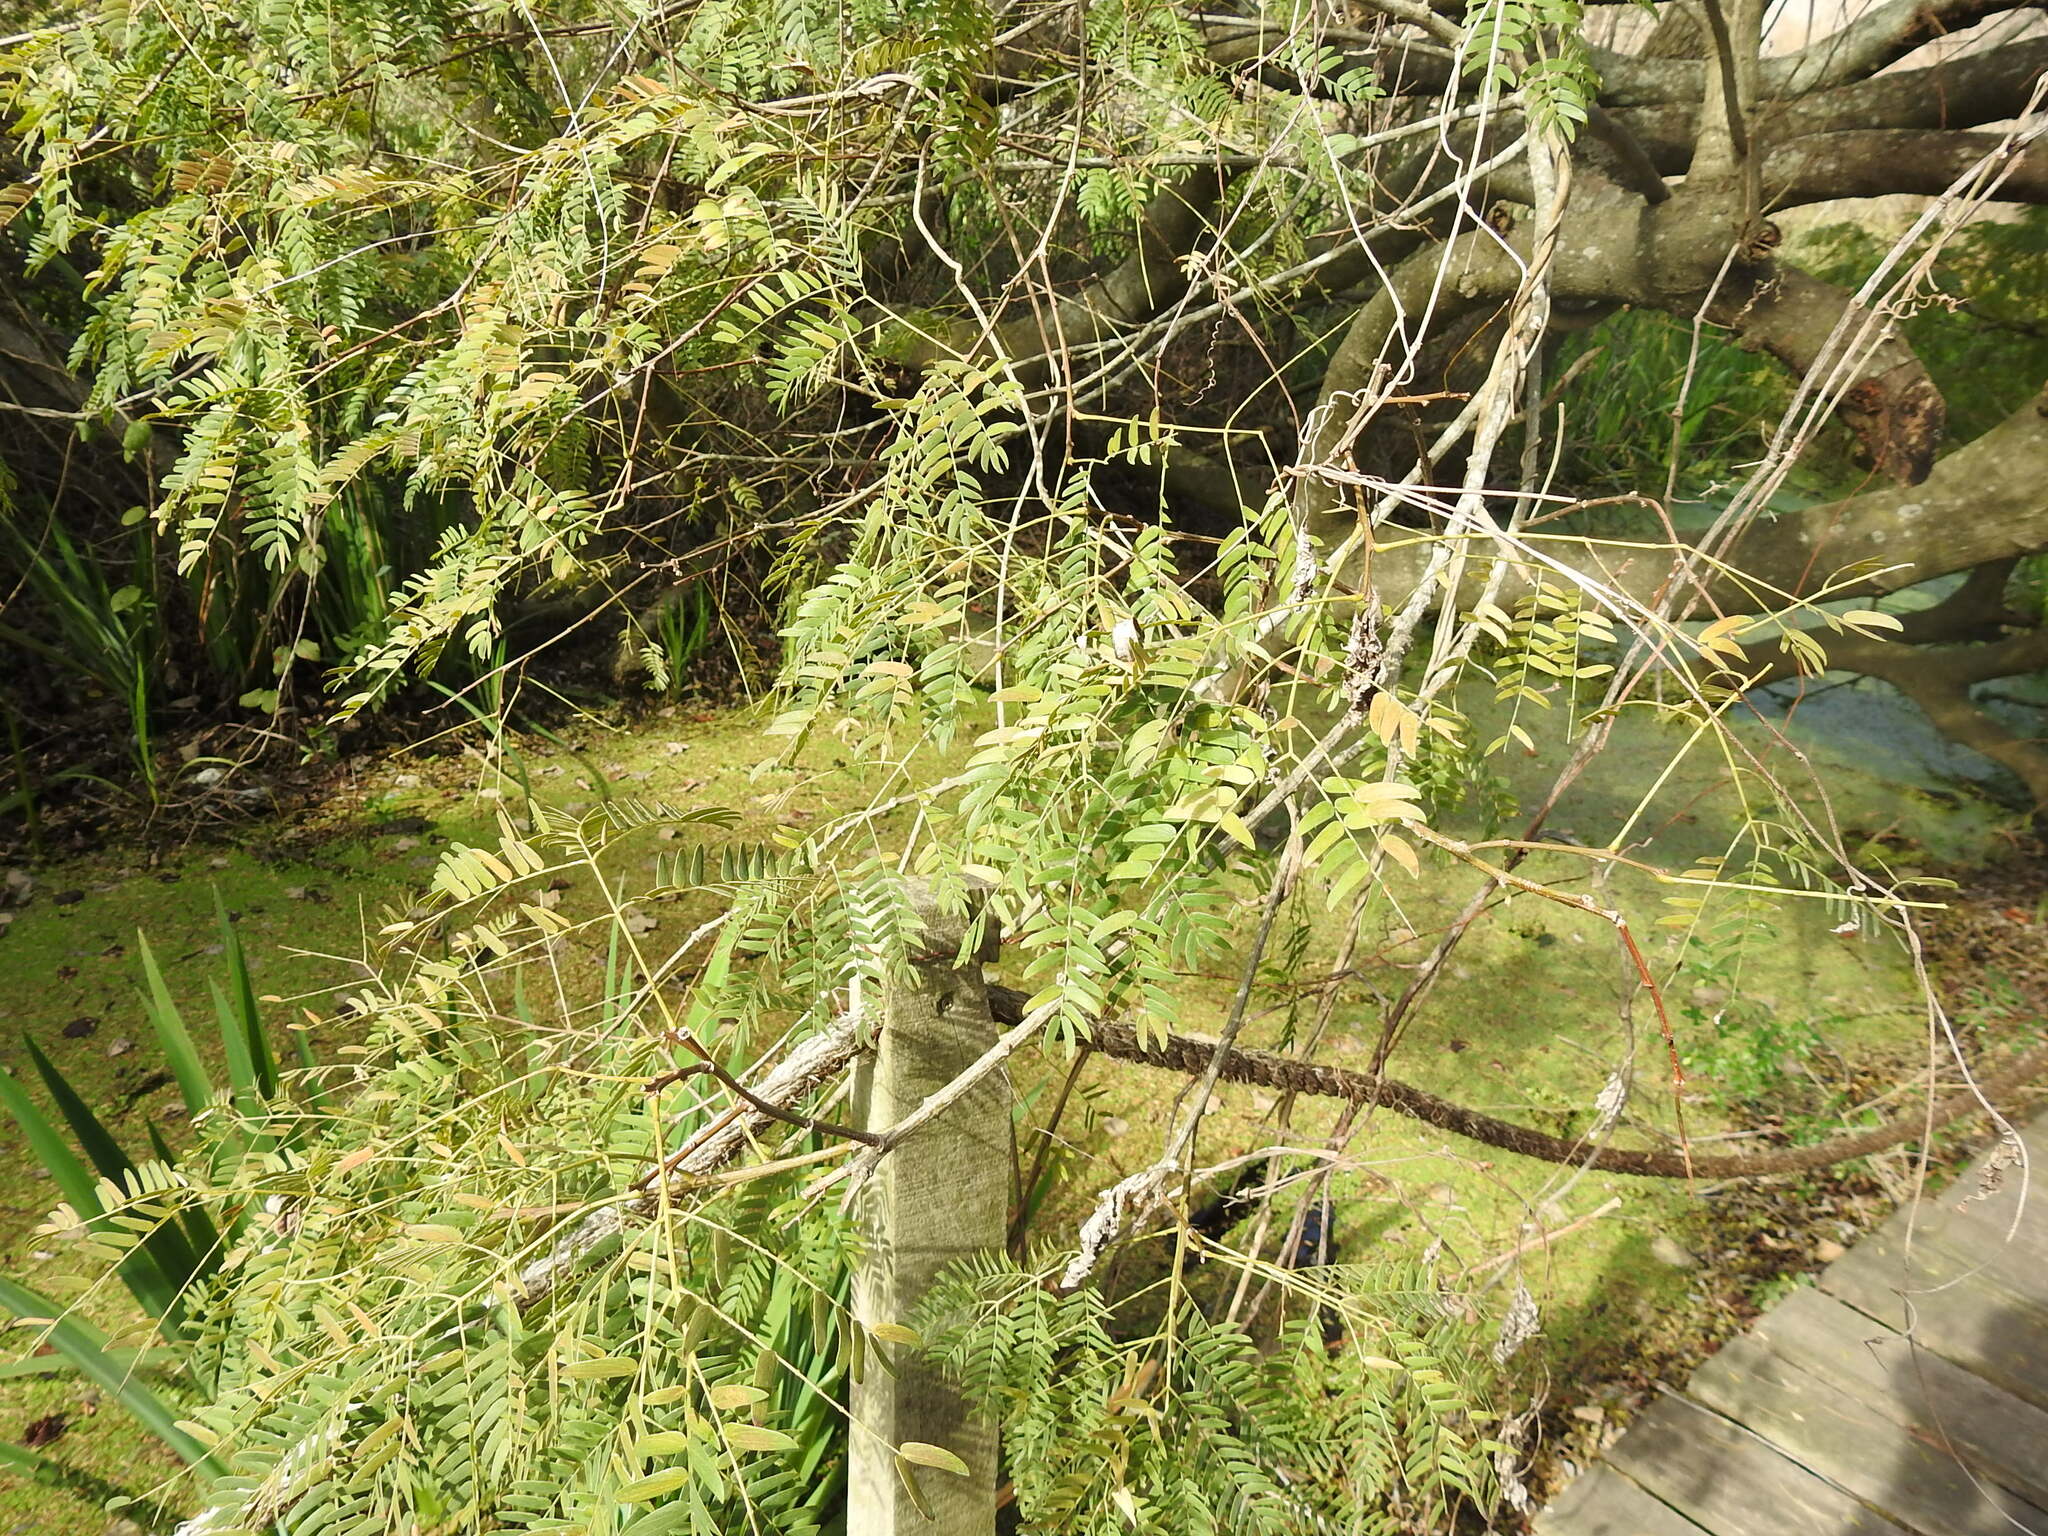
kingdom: Plantae
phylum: Tracheophyta
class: Magnoliopsida
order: Fabales
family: Fabaceae
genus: Albizia
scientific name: Albizia inundata
